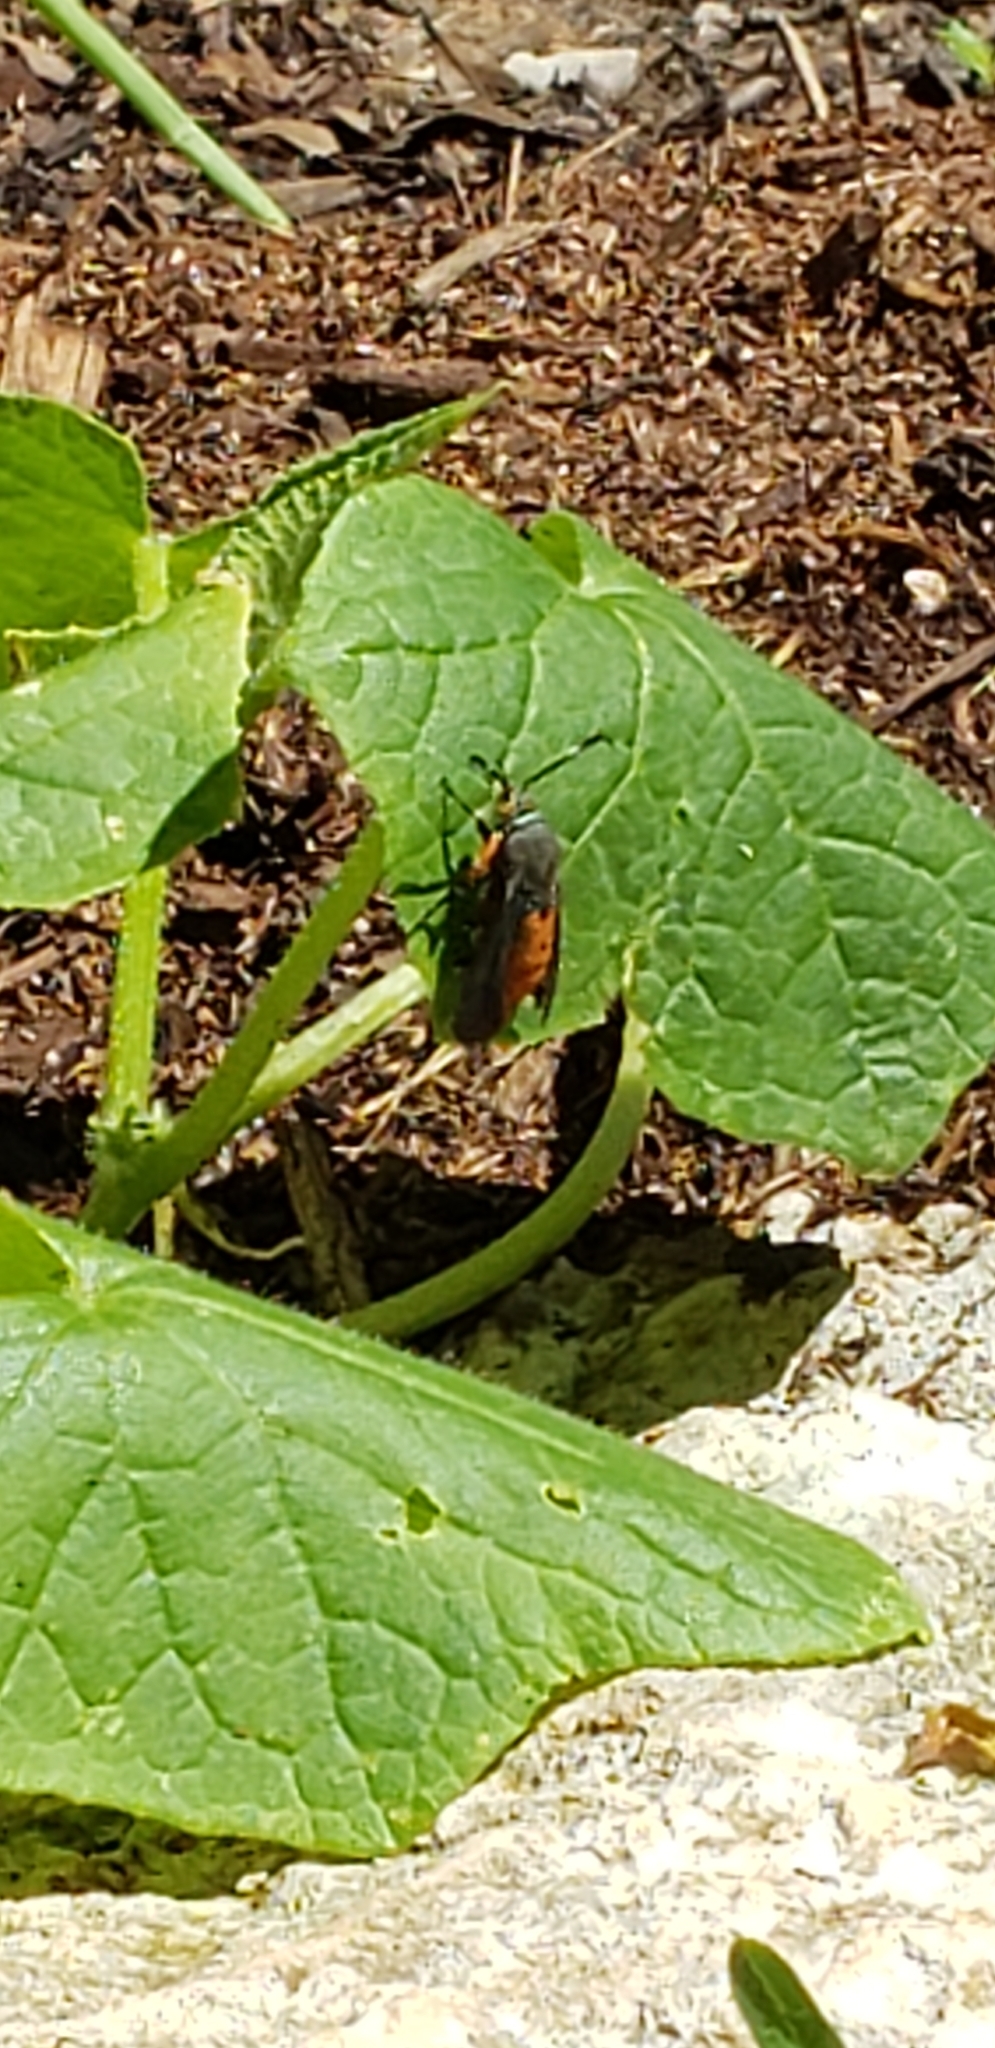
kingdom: Animalia
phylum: Arthropoda
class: Insecta
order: Lepidoptera
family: Sesiidae
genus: Eichlinia
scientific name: Eichlinia calabaza
